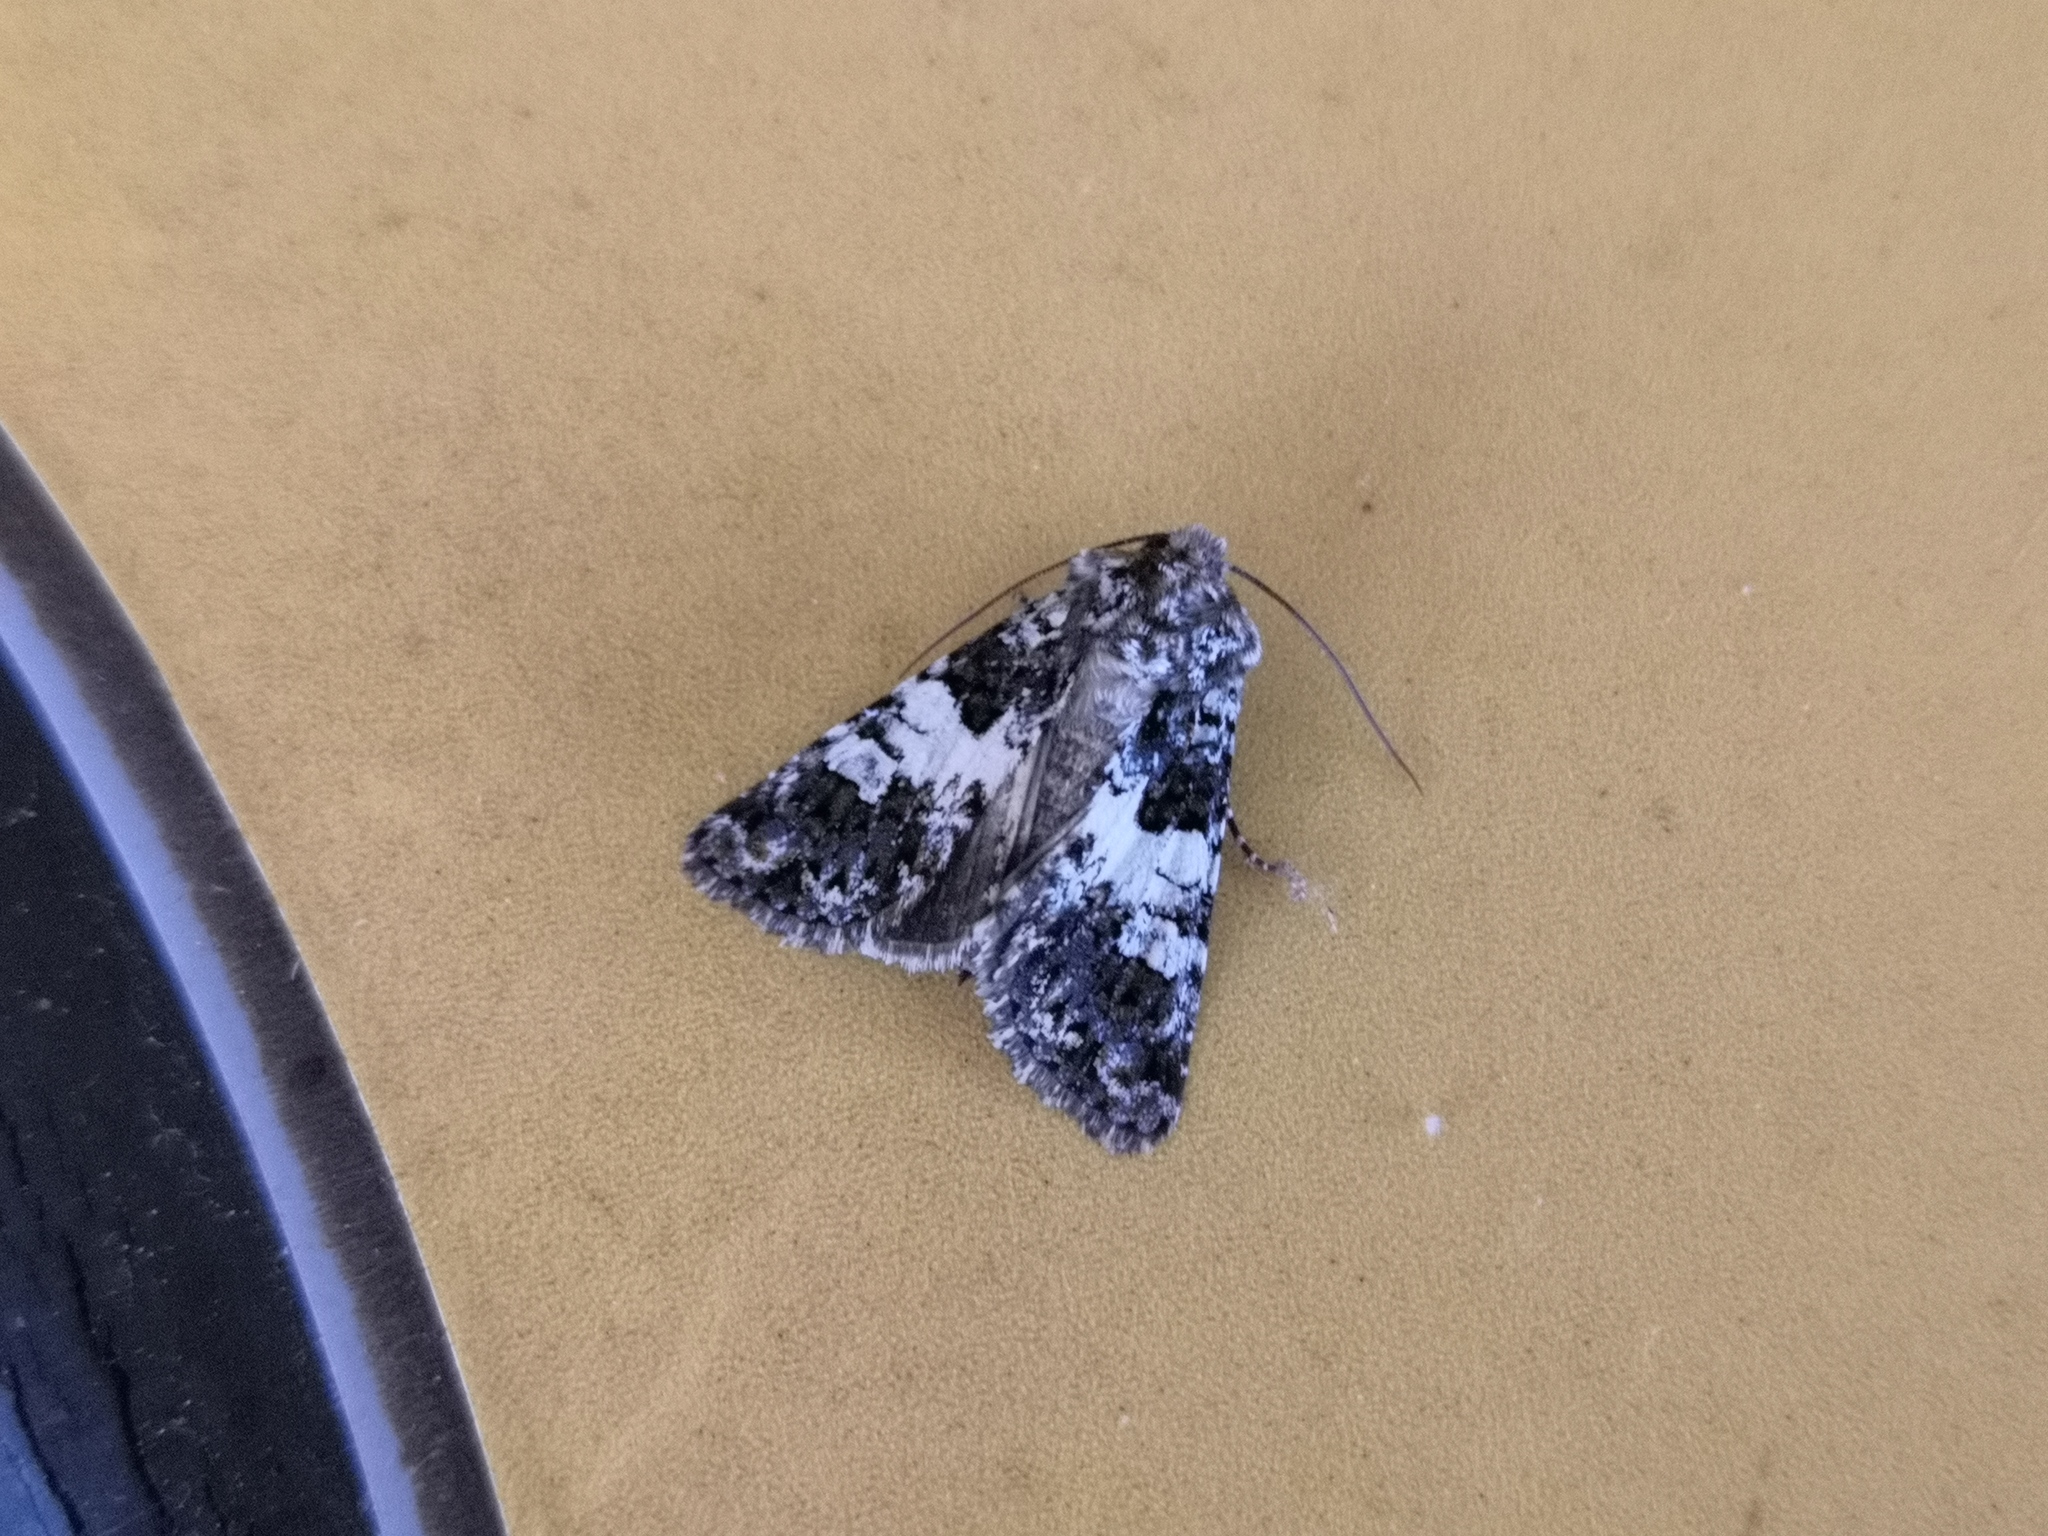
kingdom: Animalia
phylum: Arthropoda
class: Insecta
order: Lepidoptera
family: Noctuidae
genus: Hadena
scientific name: Hadena compta
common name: Varied coronet
